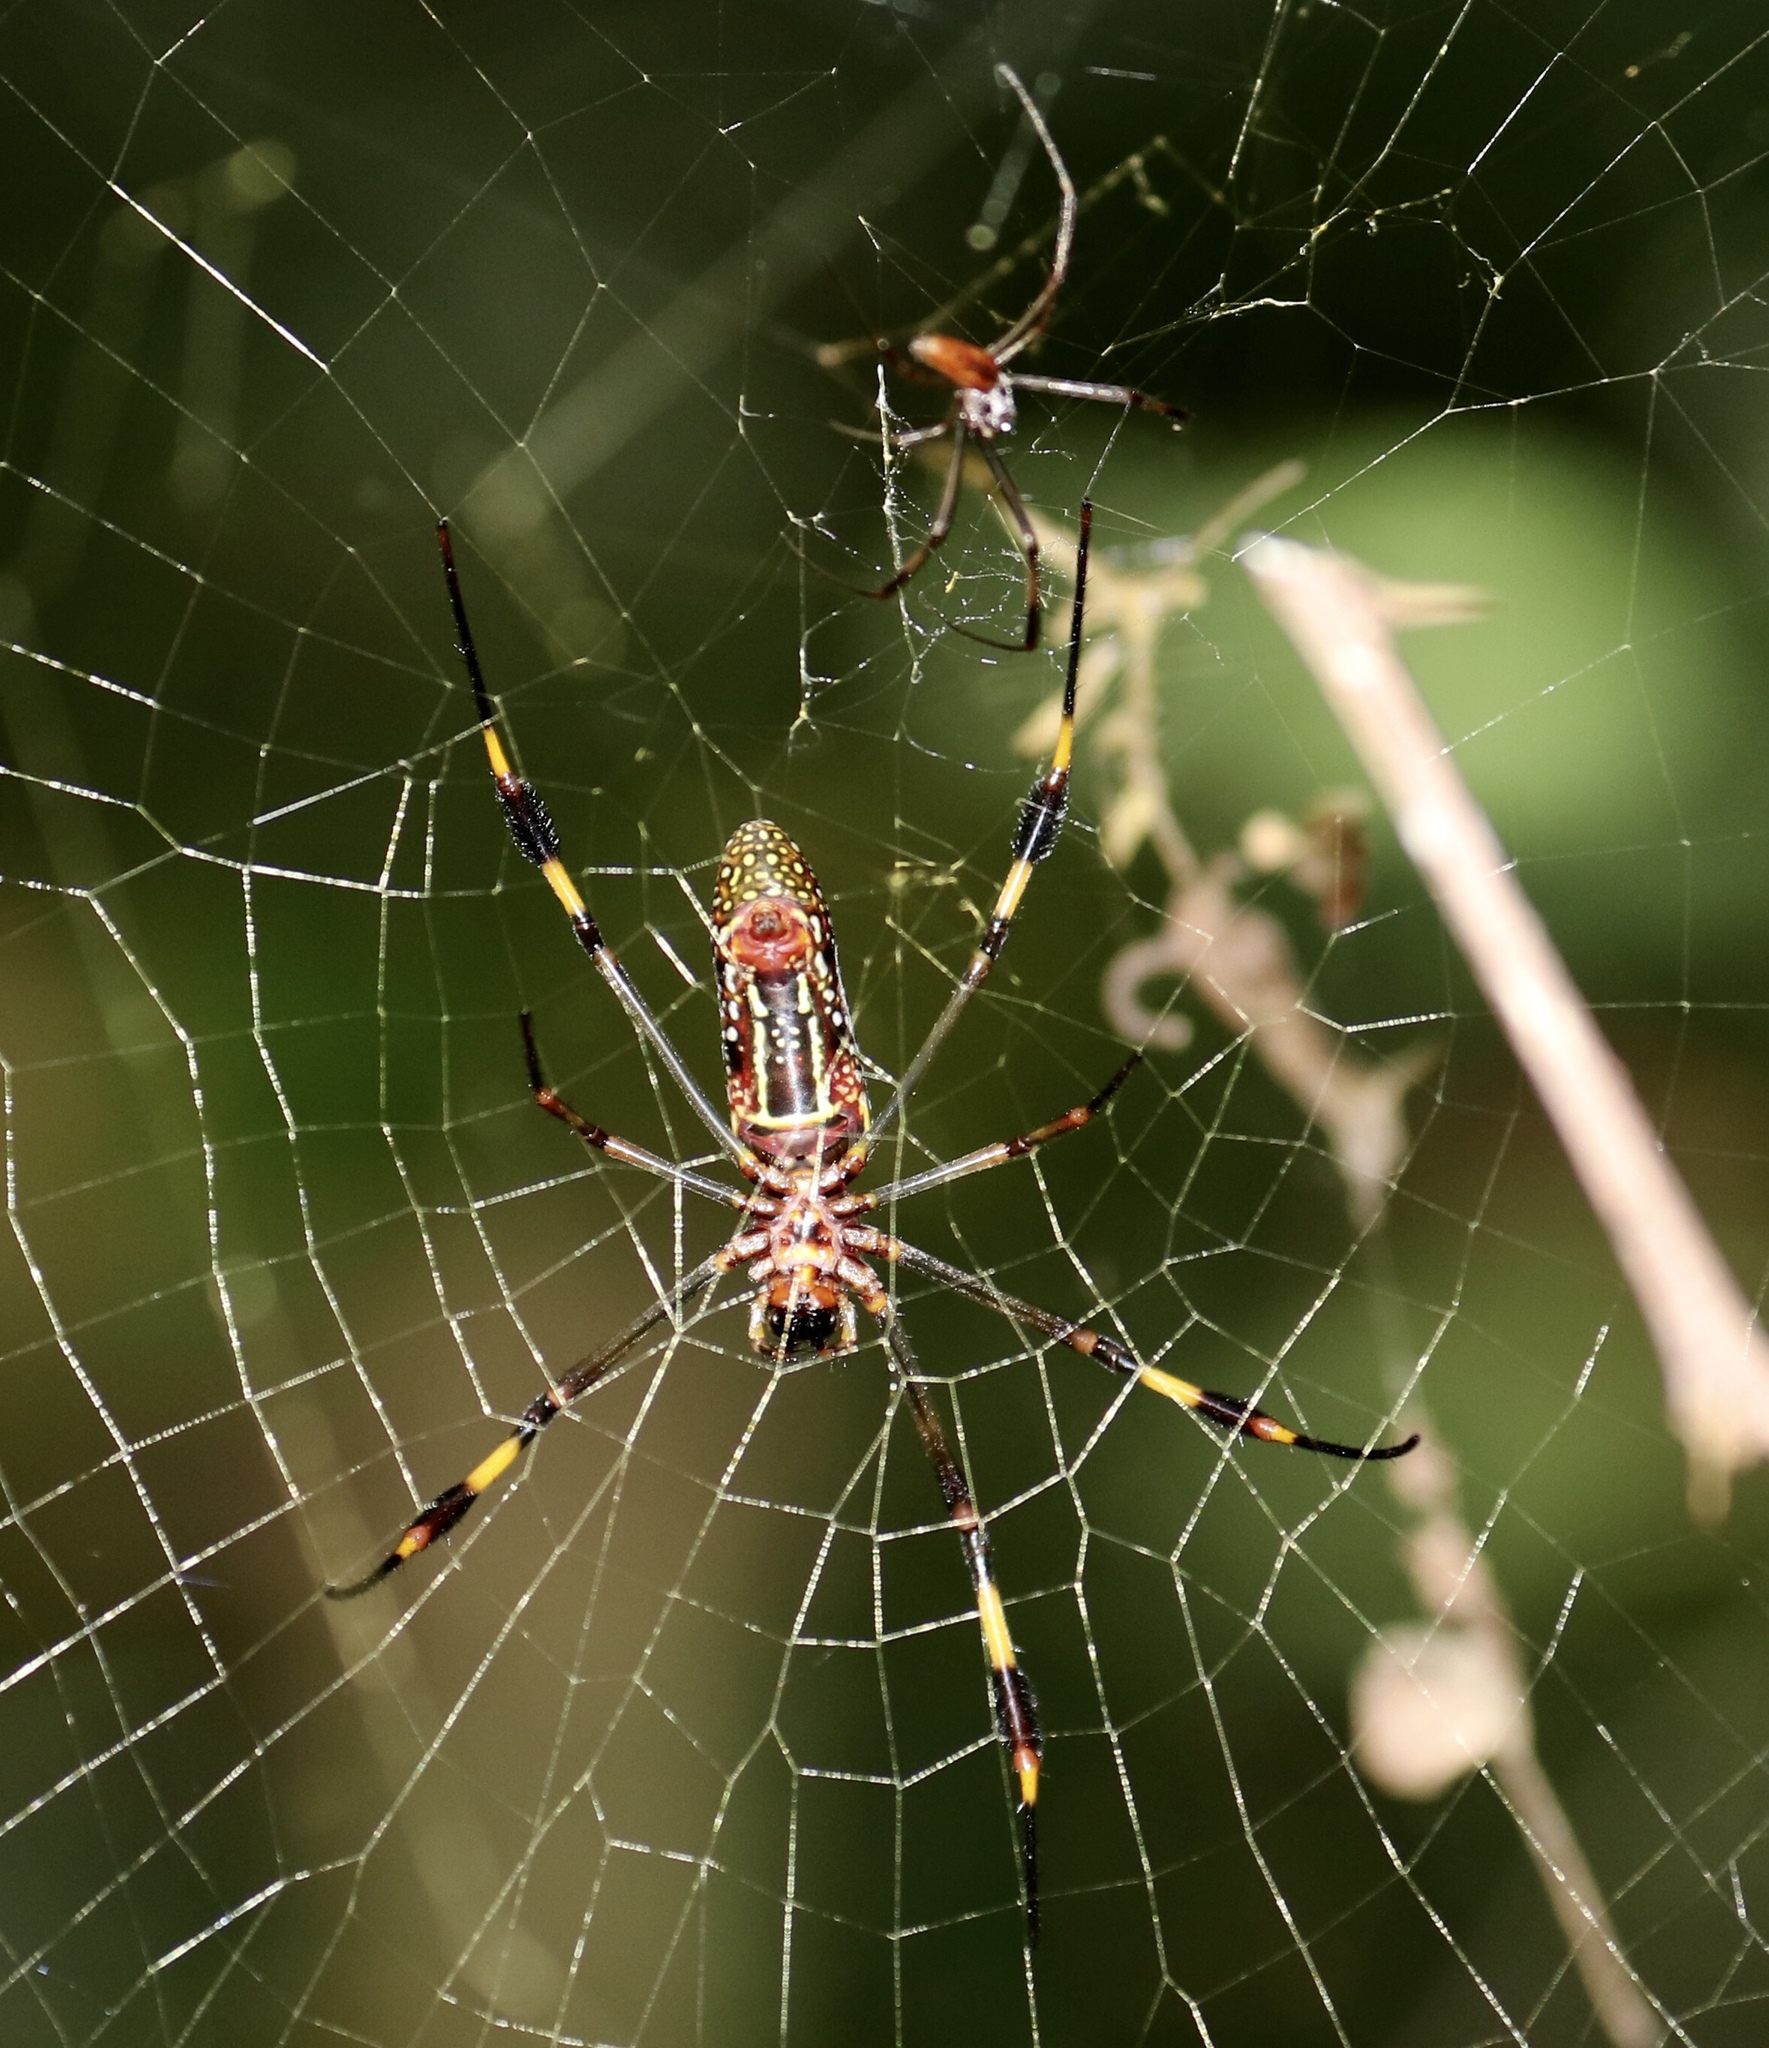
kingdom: Animalia
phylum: Arthropoda
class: Arachnida
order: Araneae
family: Araneidae
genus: Trichonephila
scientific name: Trichonephila clavipes
